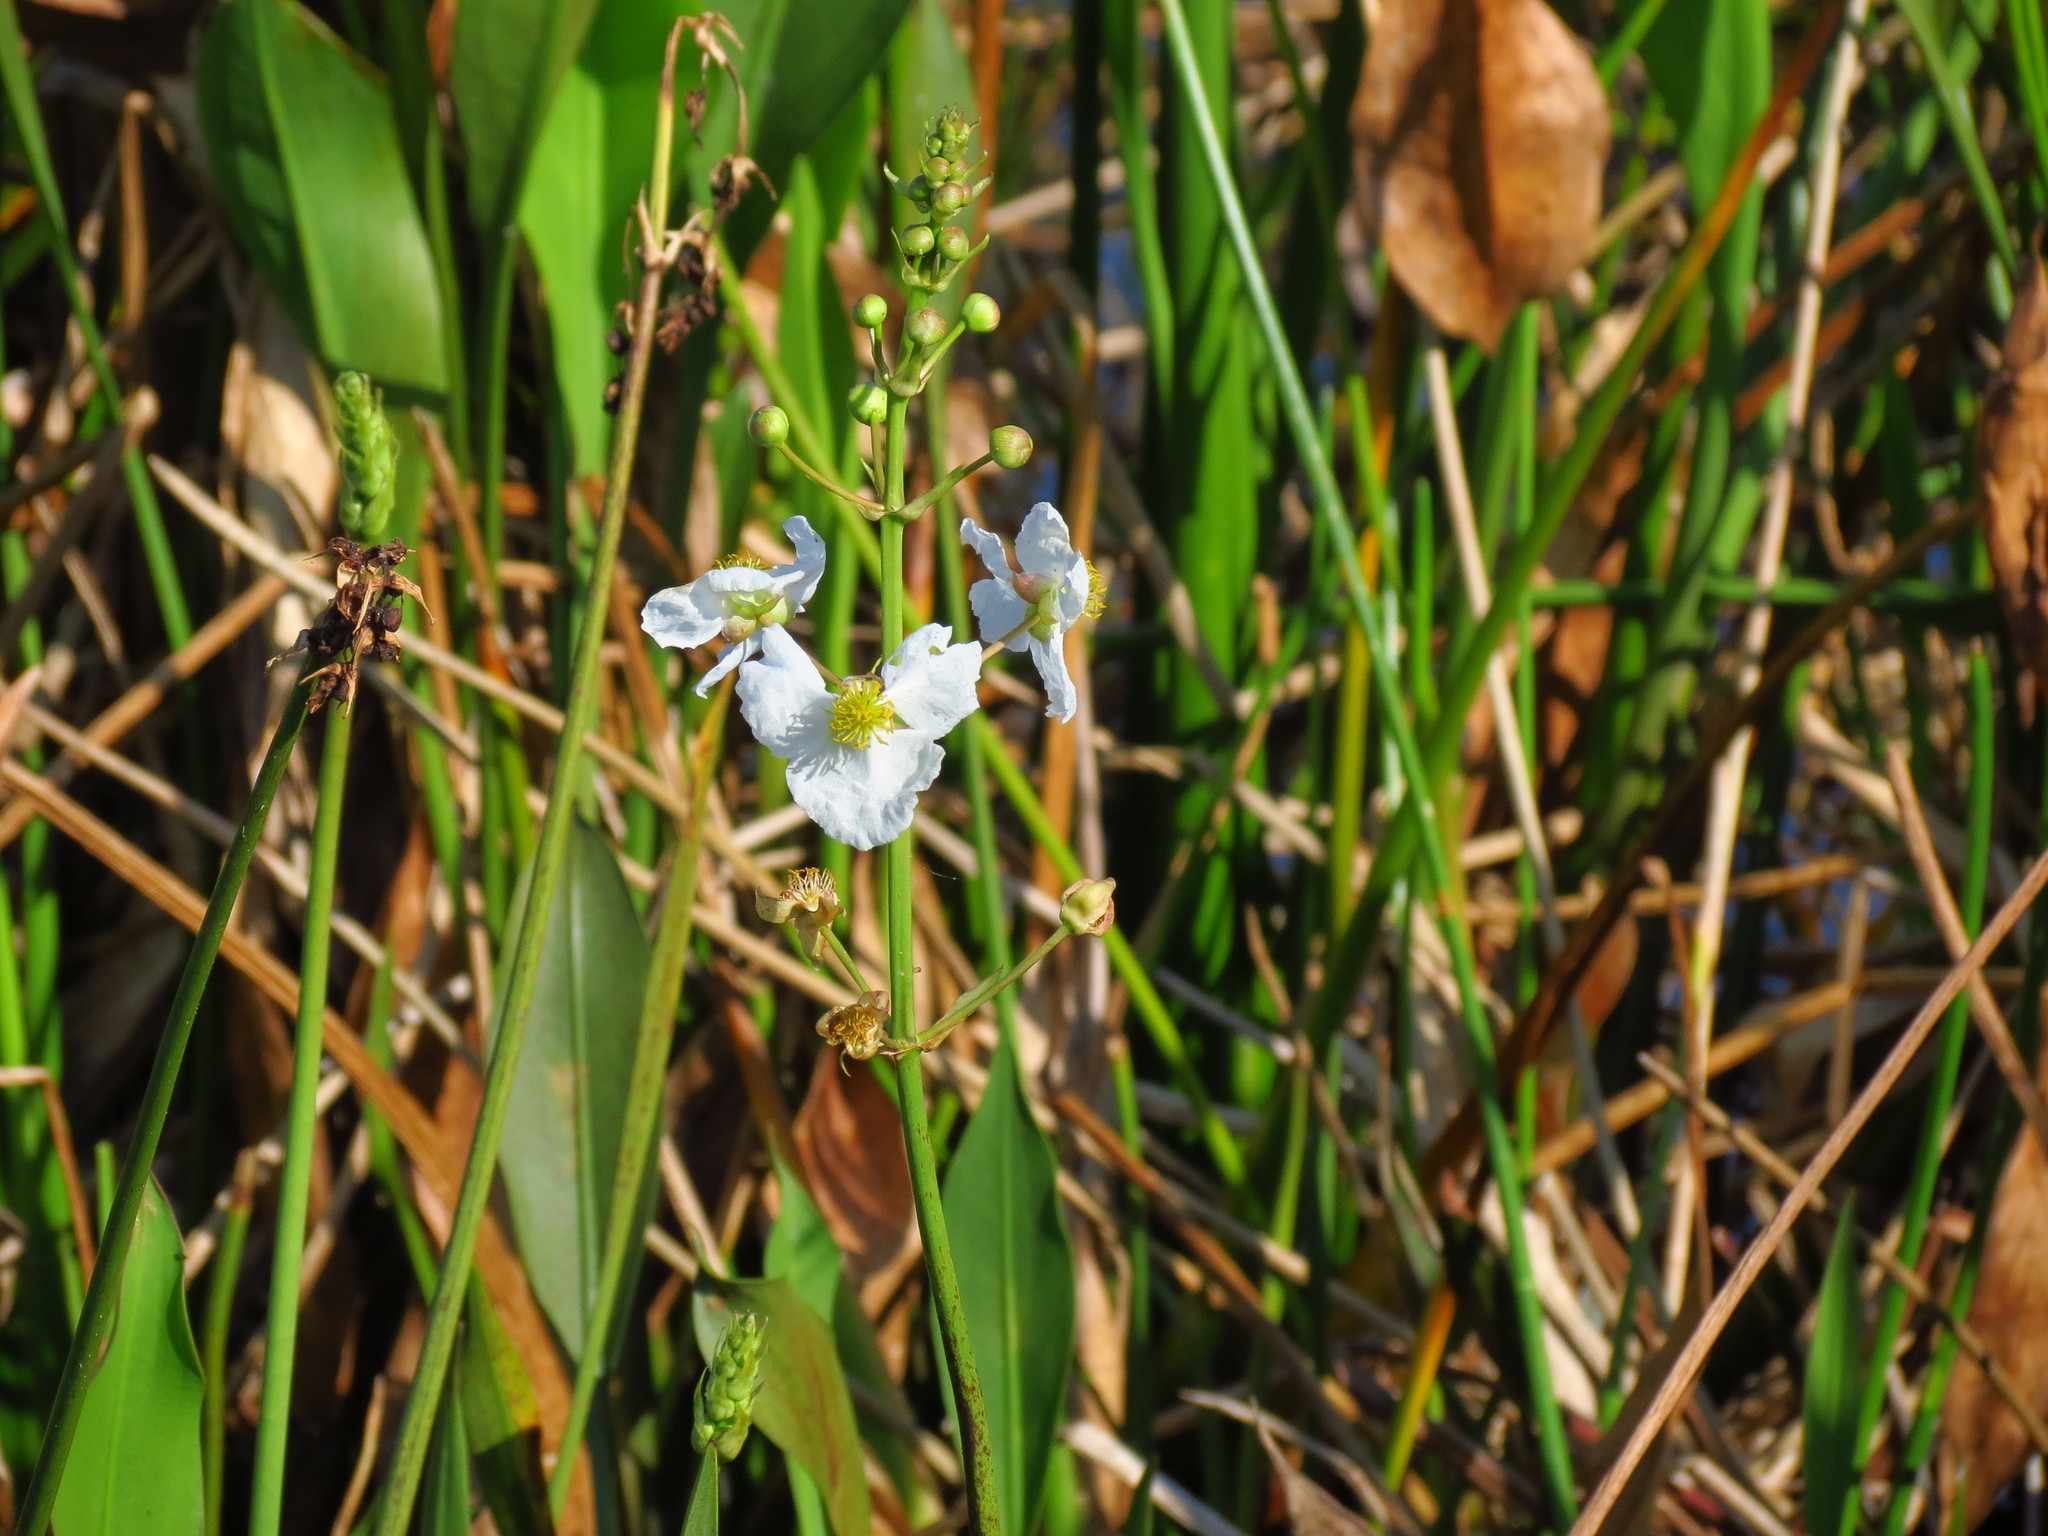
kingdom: Plantae
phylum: Tracheophyta
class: Liliopsida
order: Alismatales
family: Alismataceae
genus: Sagittaria
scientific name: Sagittaria lancifolia
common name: Lance-leaf arrowhead
